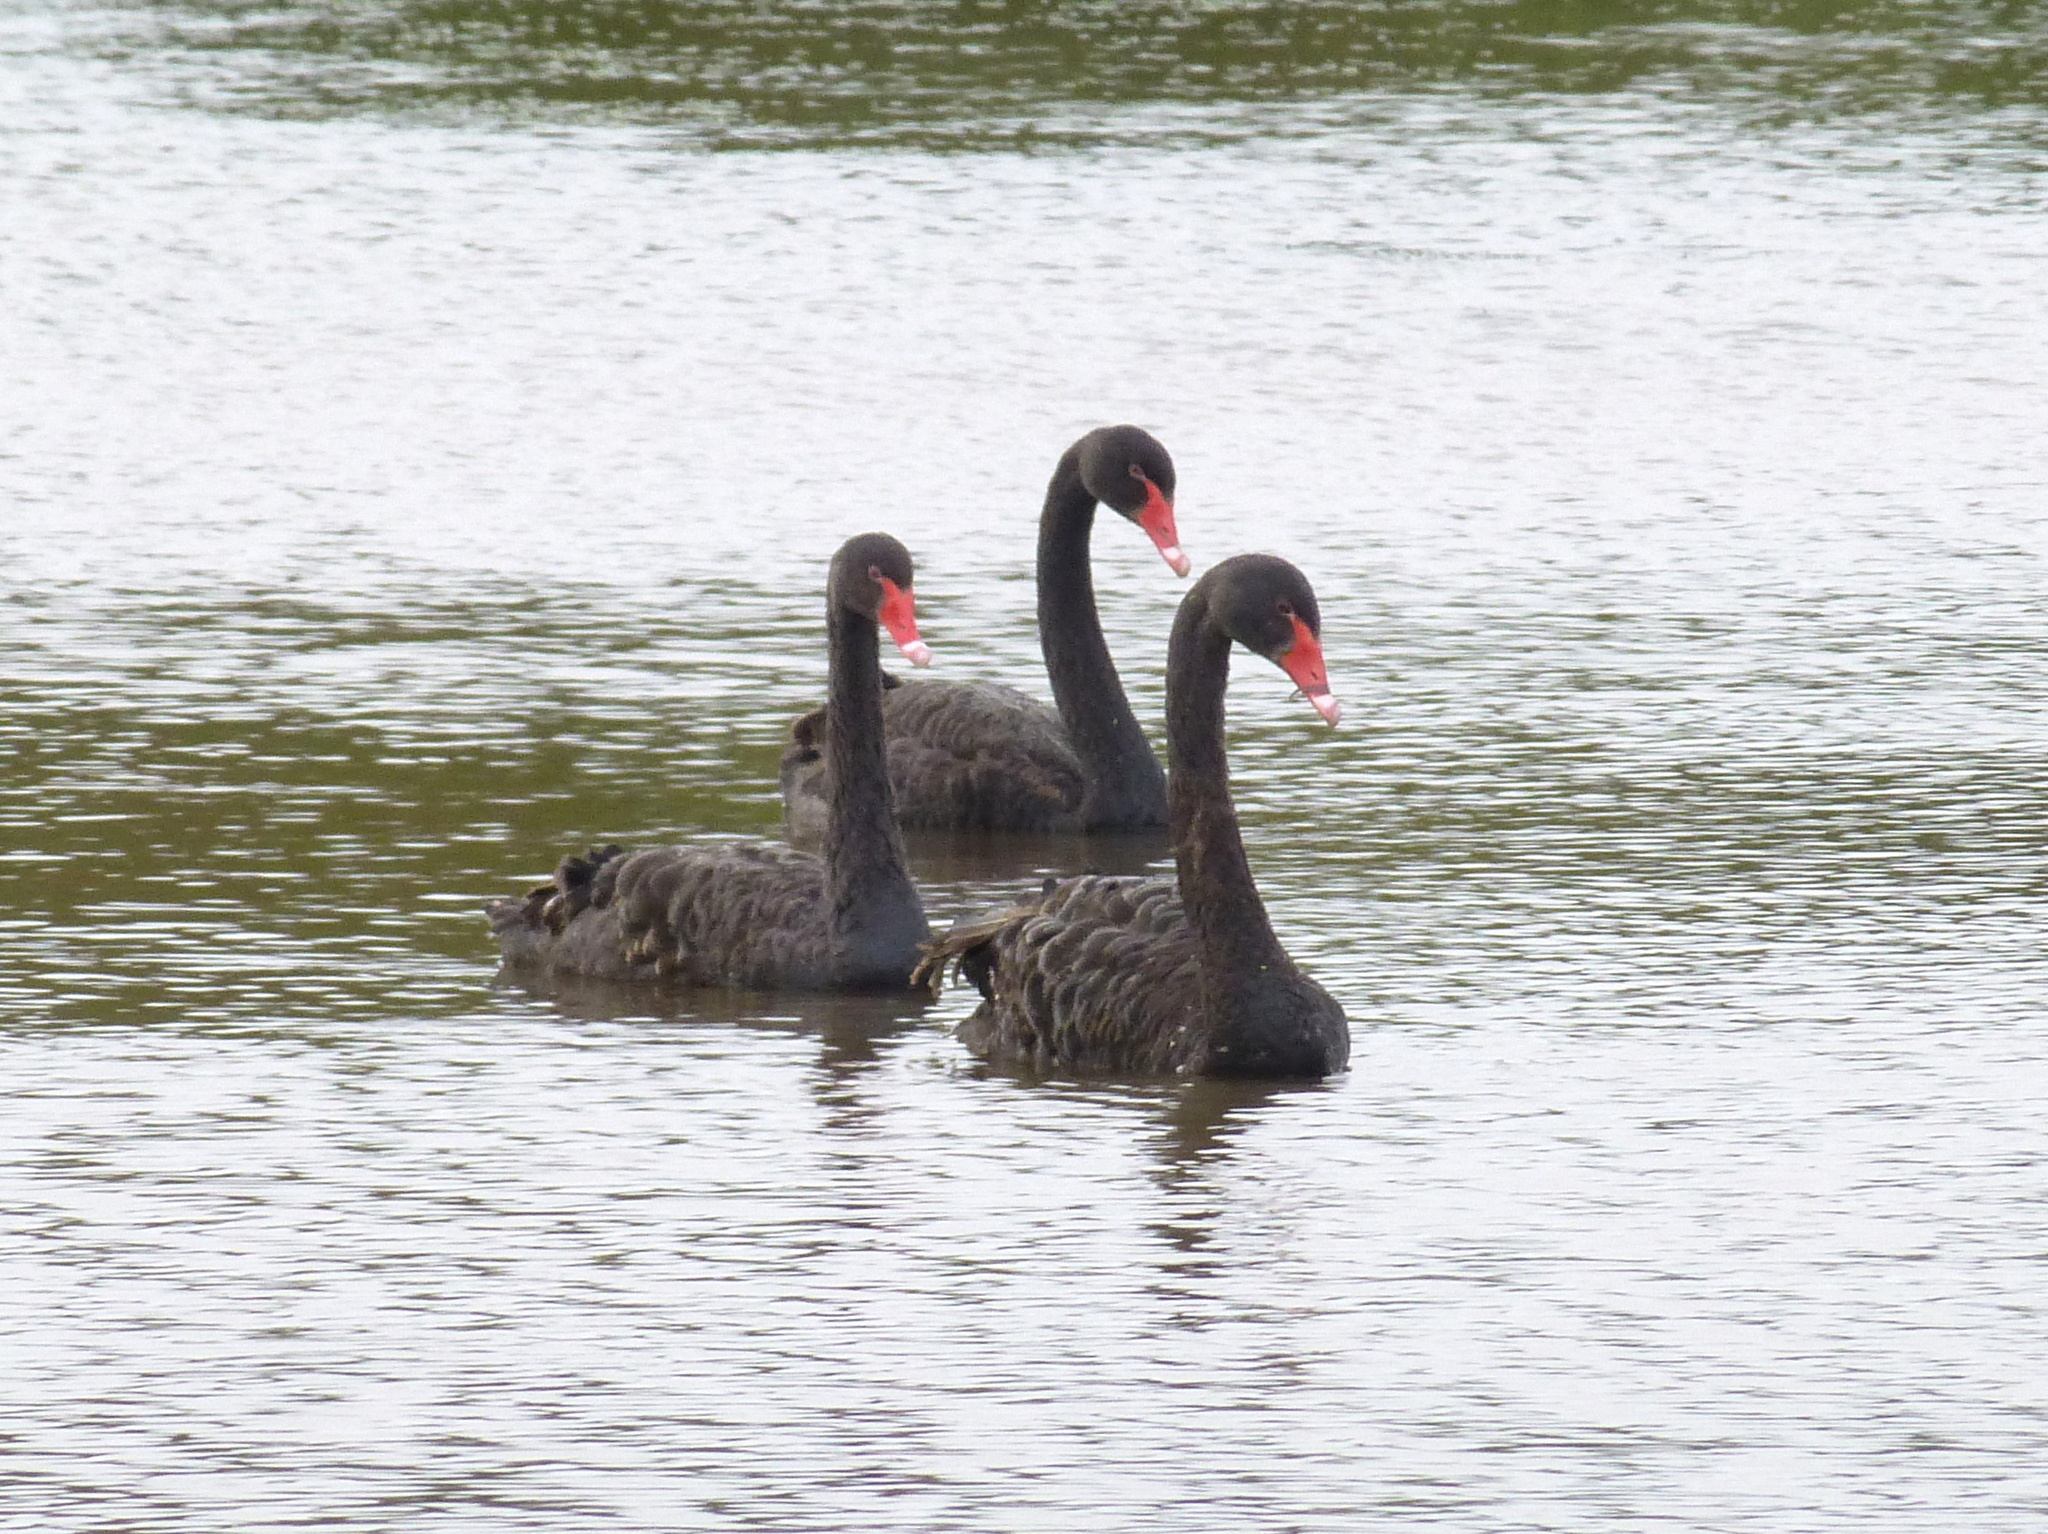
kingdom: Animalia
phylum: Chordata
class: Aves
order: Anseriformes
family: Anatidae
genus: Cygnus
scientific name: Cygnus atratus
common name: Black swan
